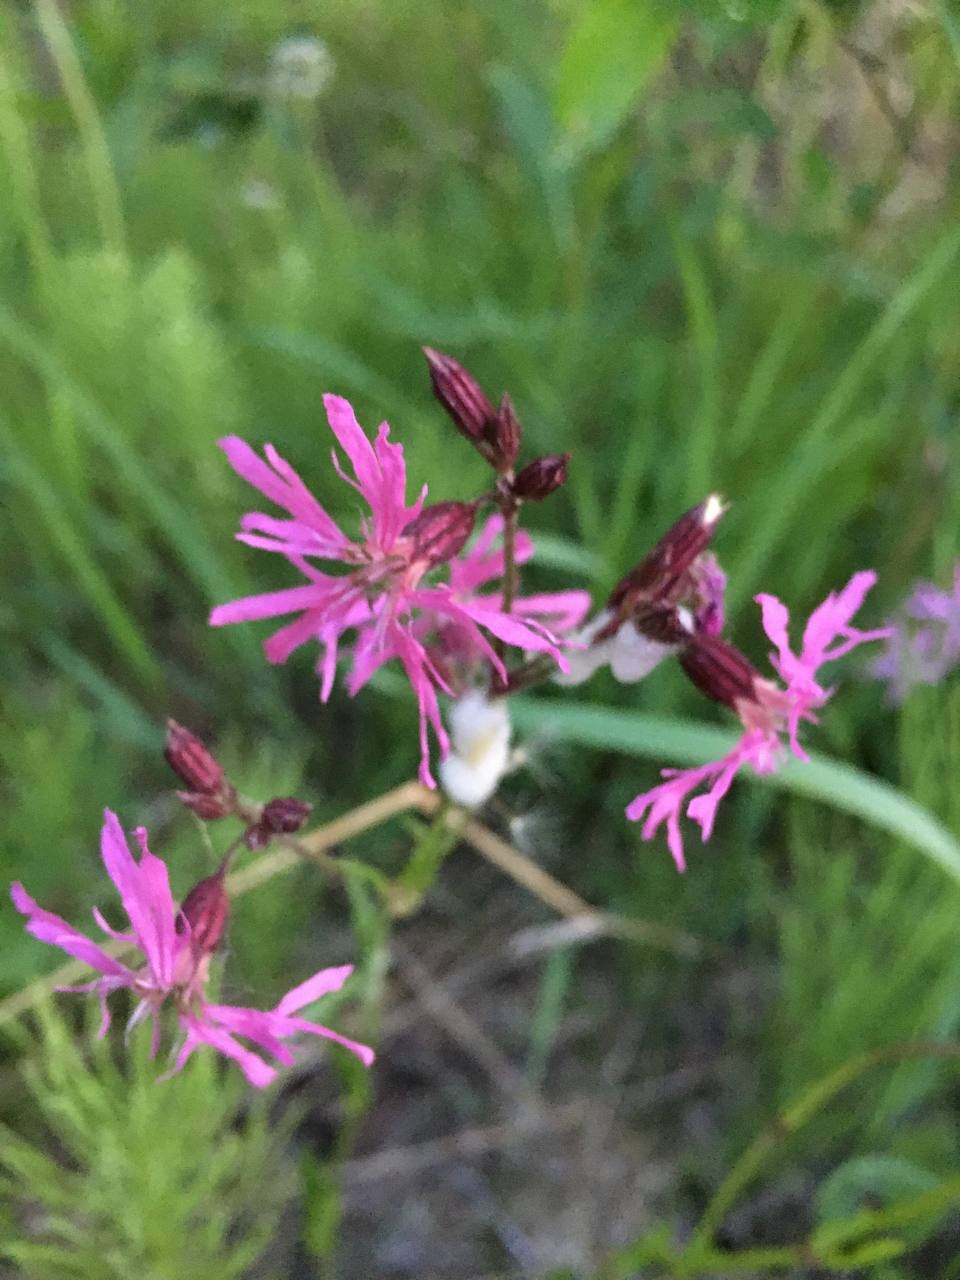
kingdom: Plantae
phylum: Tracheophyta
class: Magnoliopsida
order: Caryophyllales
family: Caryophyllaceae
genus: Silene
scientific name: Silene flos-cuculi
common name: Ragged-robin
